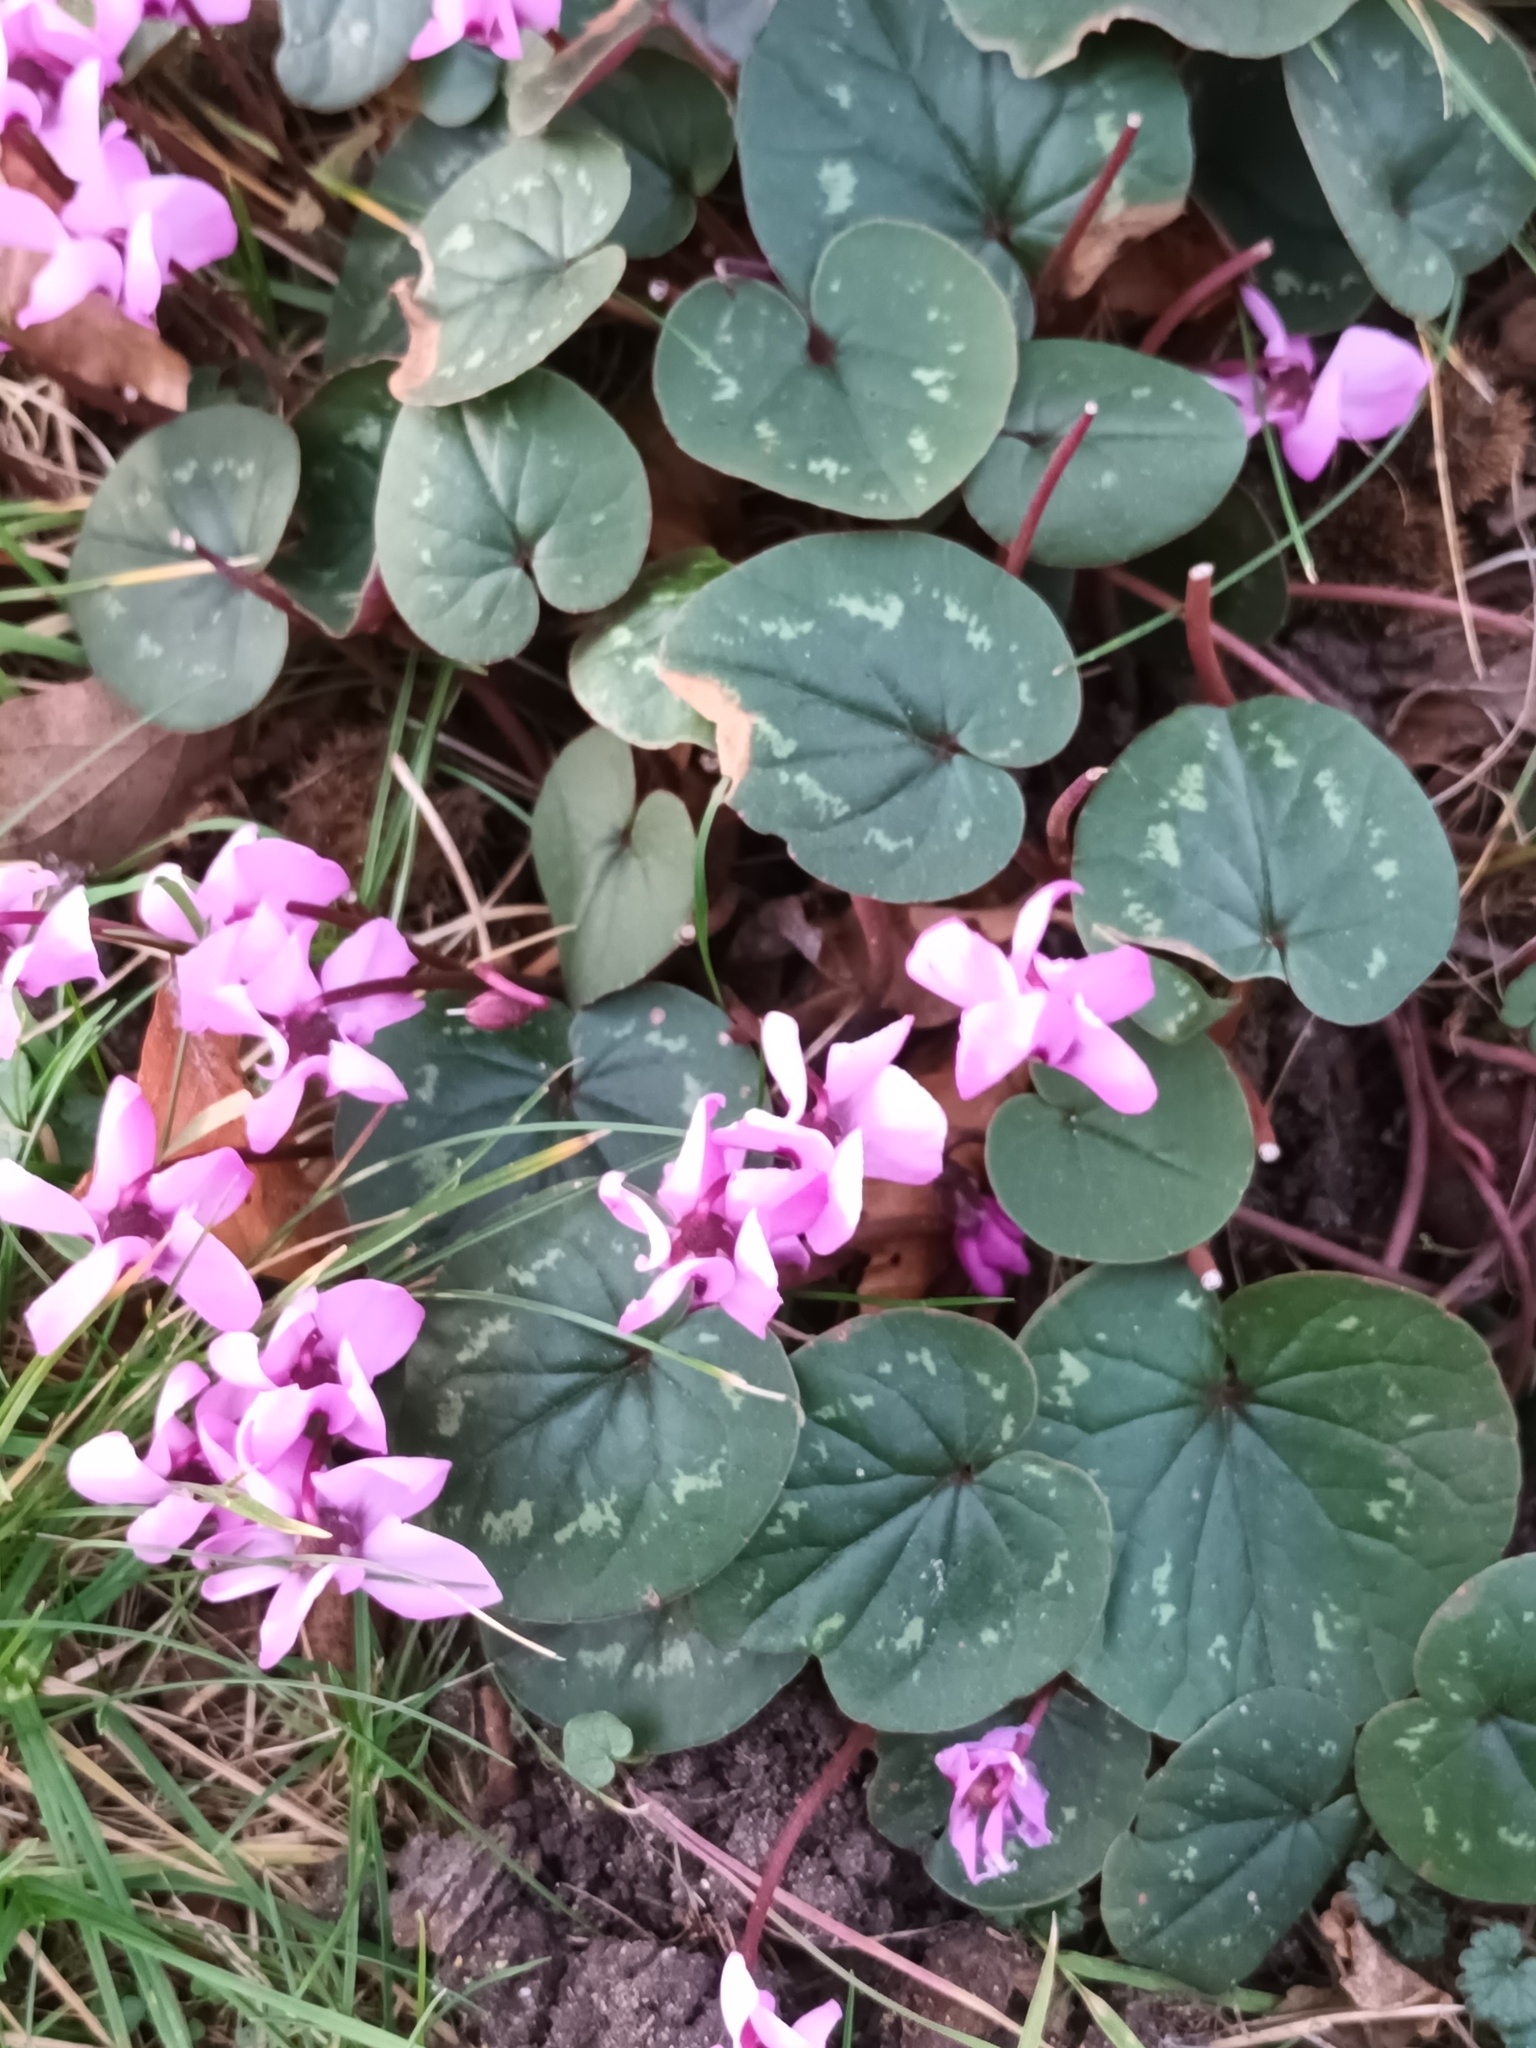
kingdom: Plantae
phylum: Tracheophyta
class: Magnoliopsida
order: Ericales
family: Primulaceae
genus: Cyclamen
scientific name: Cyclamen coum
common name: Eastern sowbread
